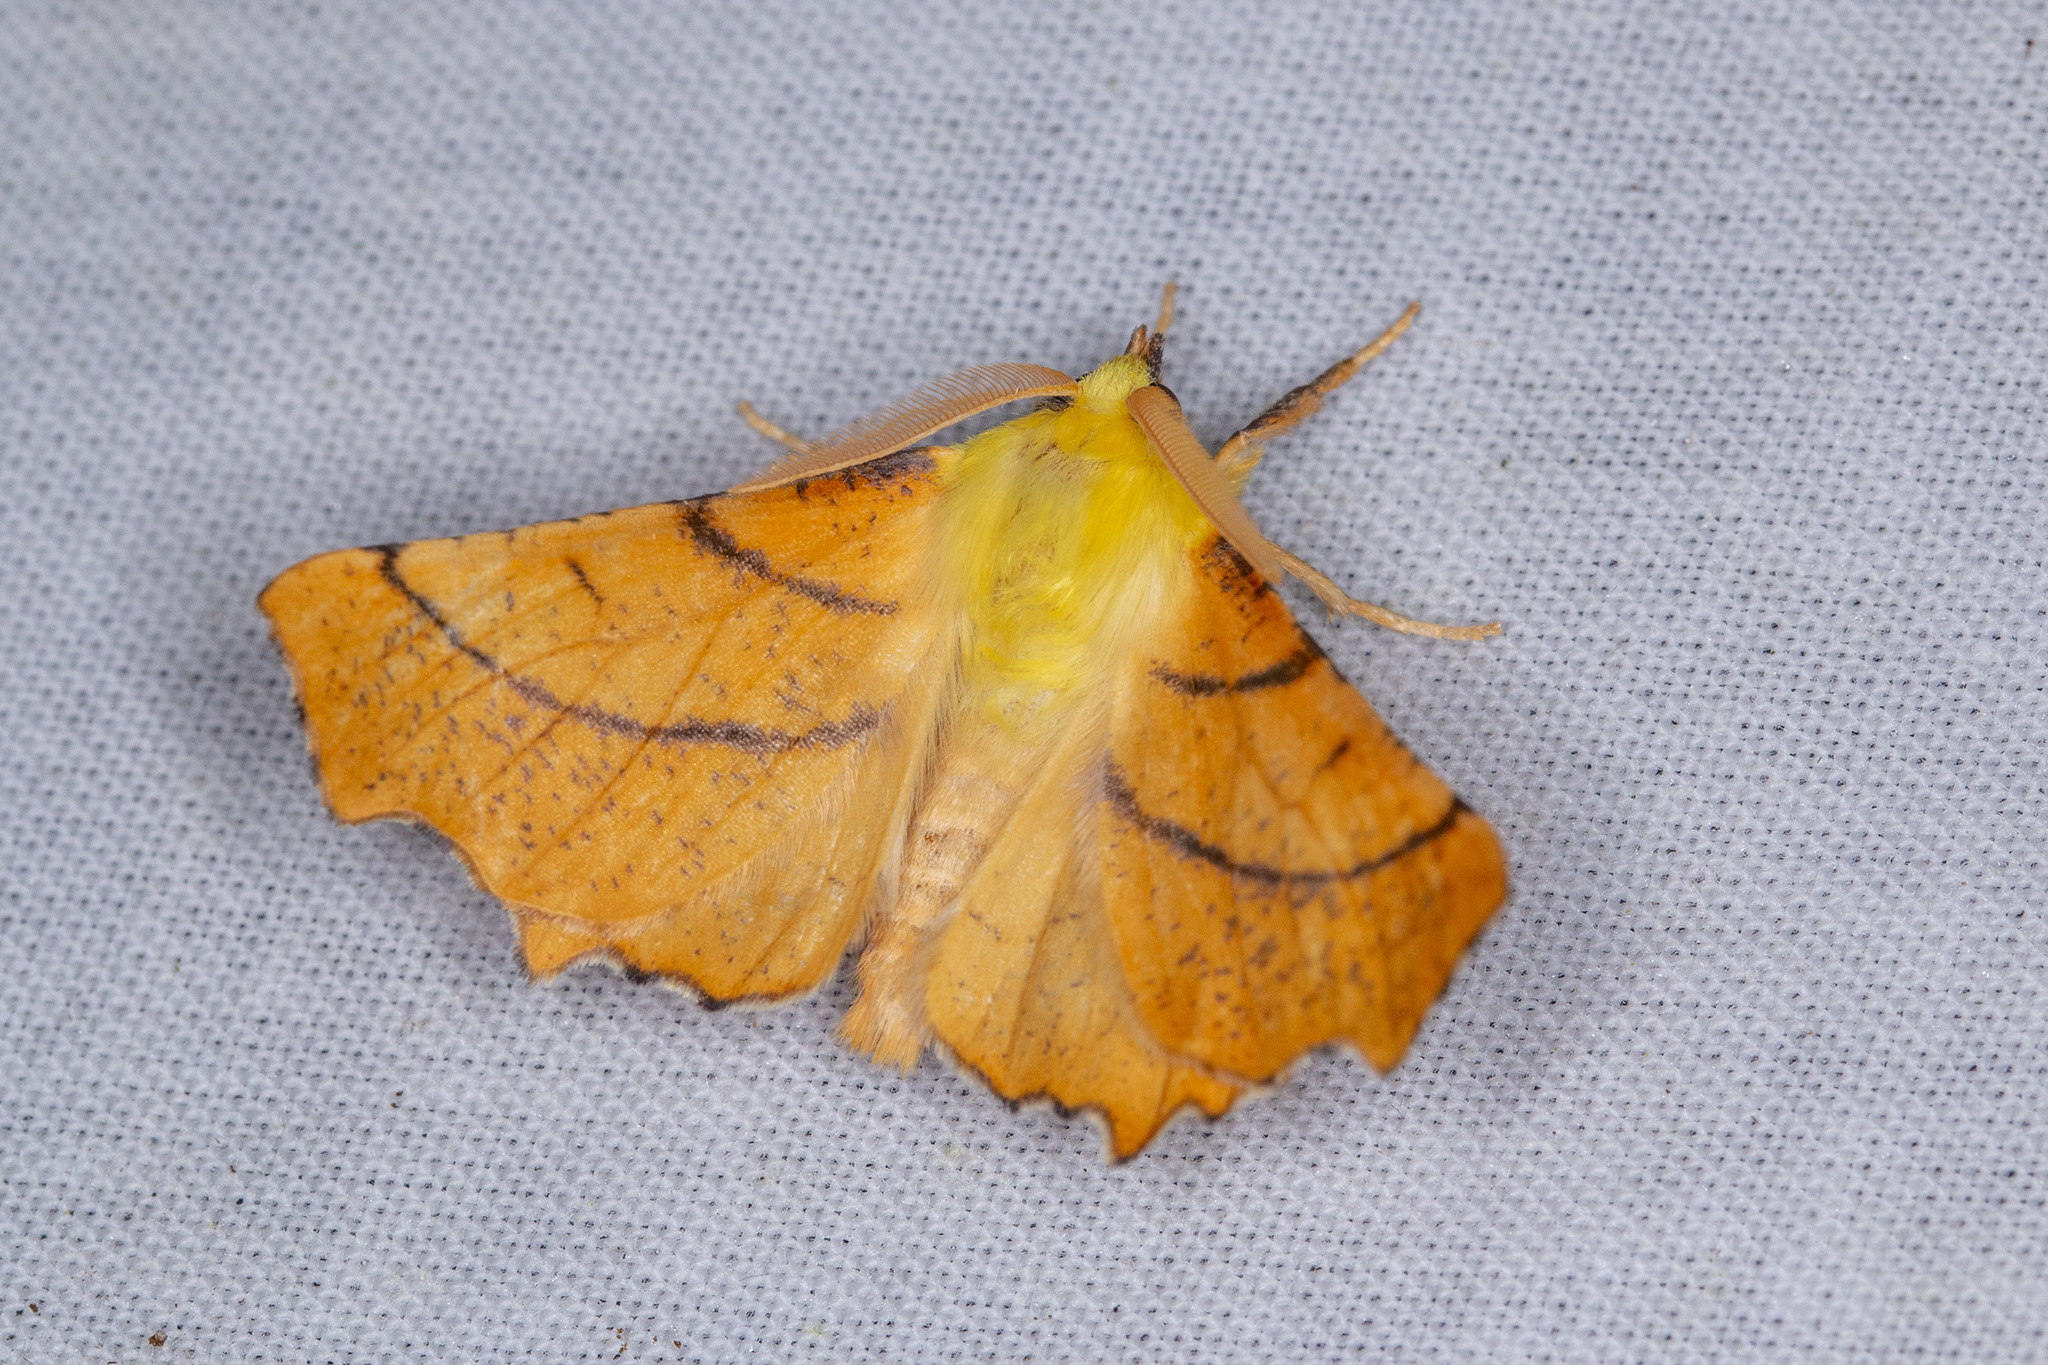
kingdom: Animalia
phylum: Arthropoda
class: Insecta
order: Lepidoptera
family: Geometridae
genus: Ennomos
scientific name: Ennomos alniaria
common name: Canary-shouldered thorn
